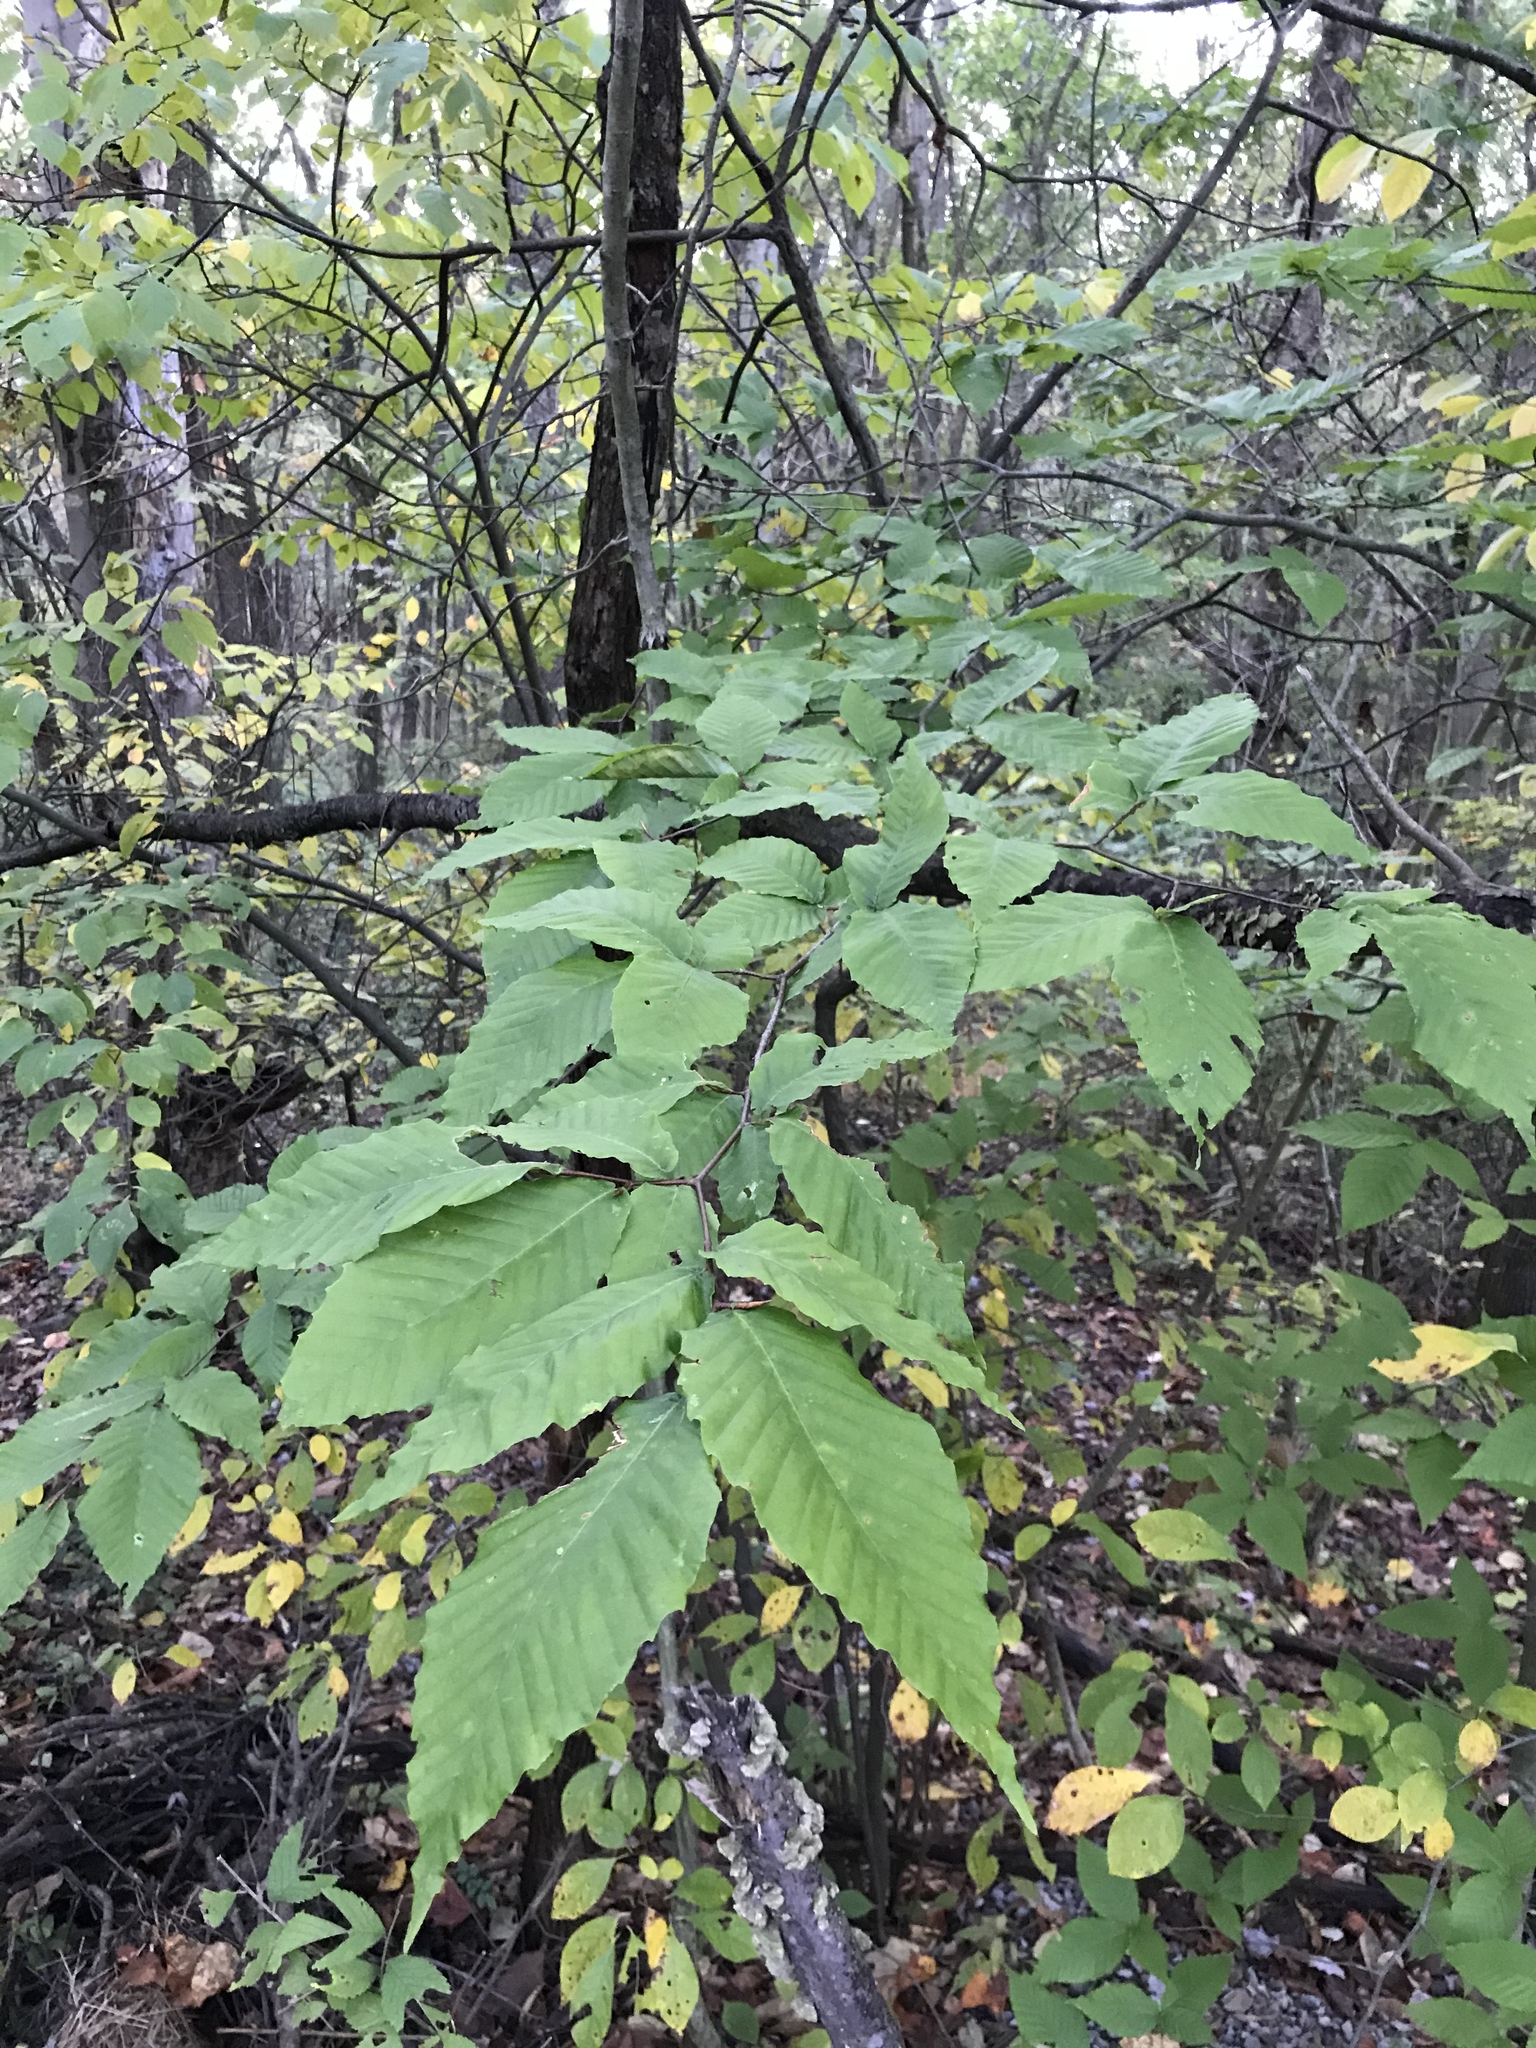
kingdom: Plantae
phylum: Tracheophyta
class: Magnoliopsida
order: Fagales
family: Fagaceae
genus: Fagus
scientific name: Fagus grandifolia
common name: American beech
